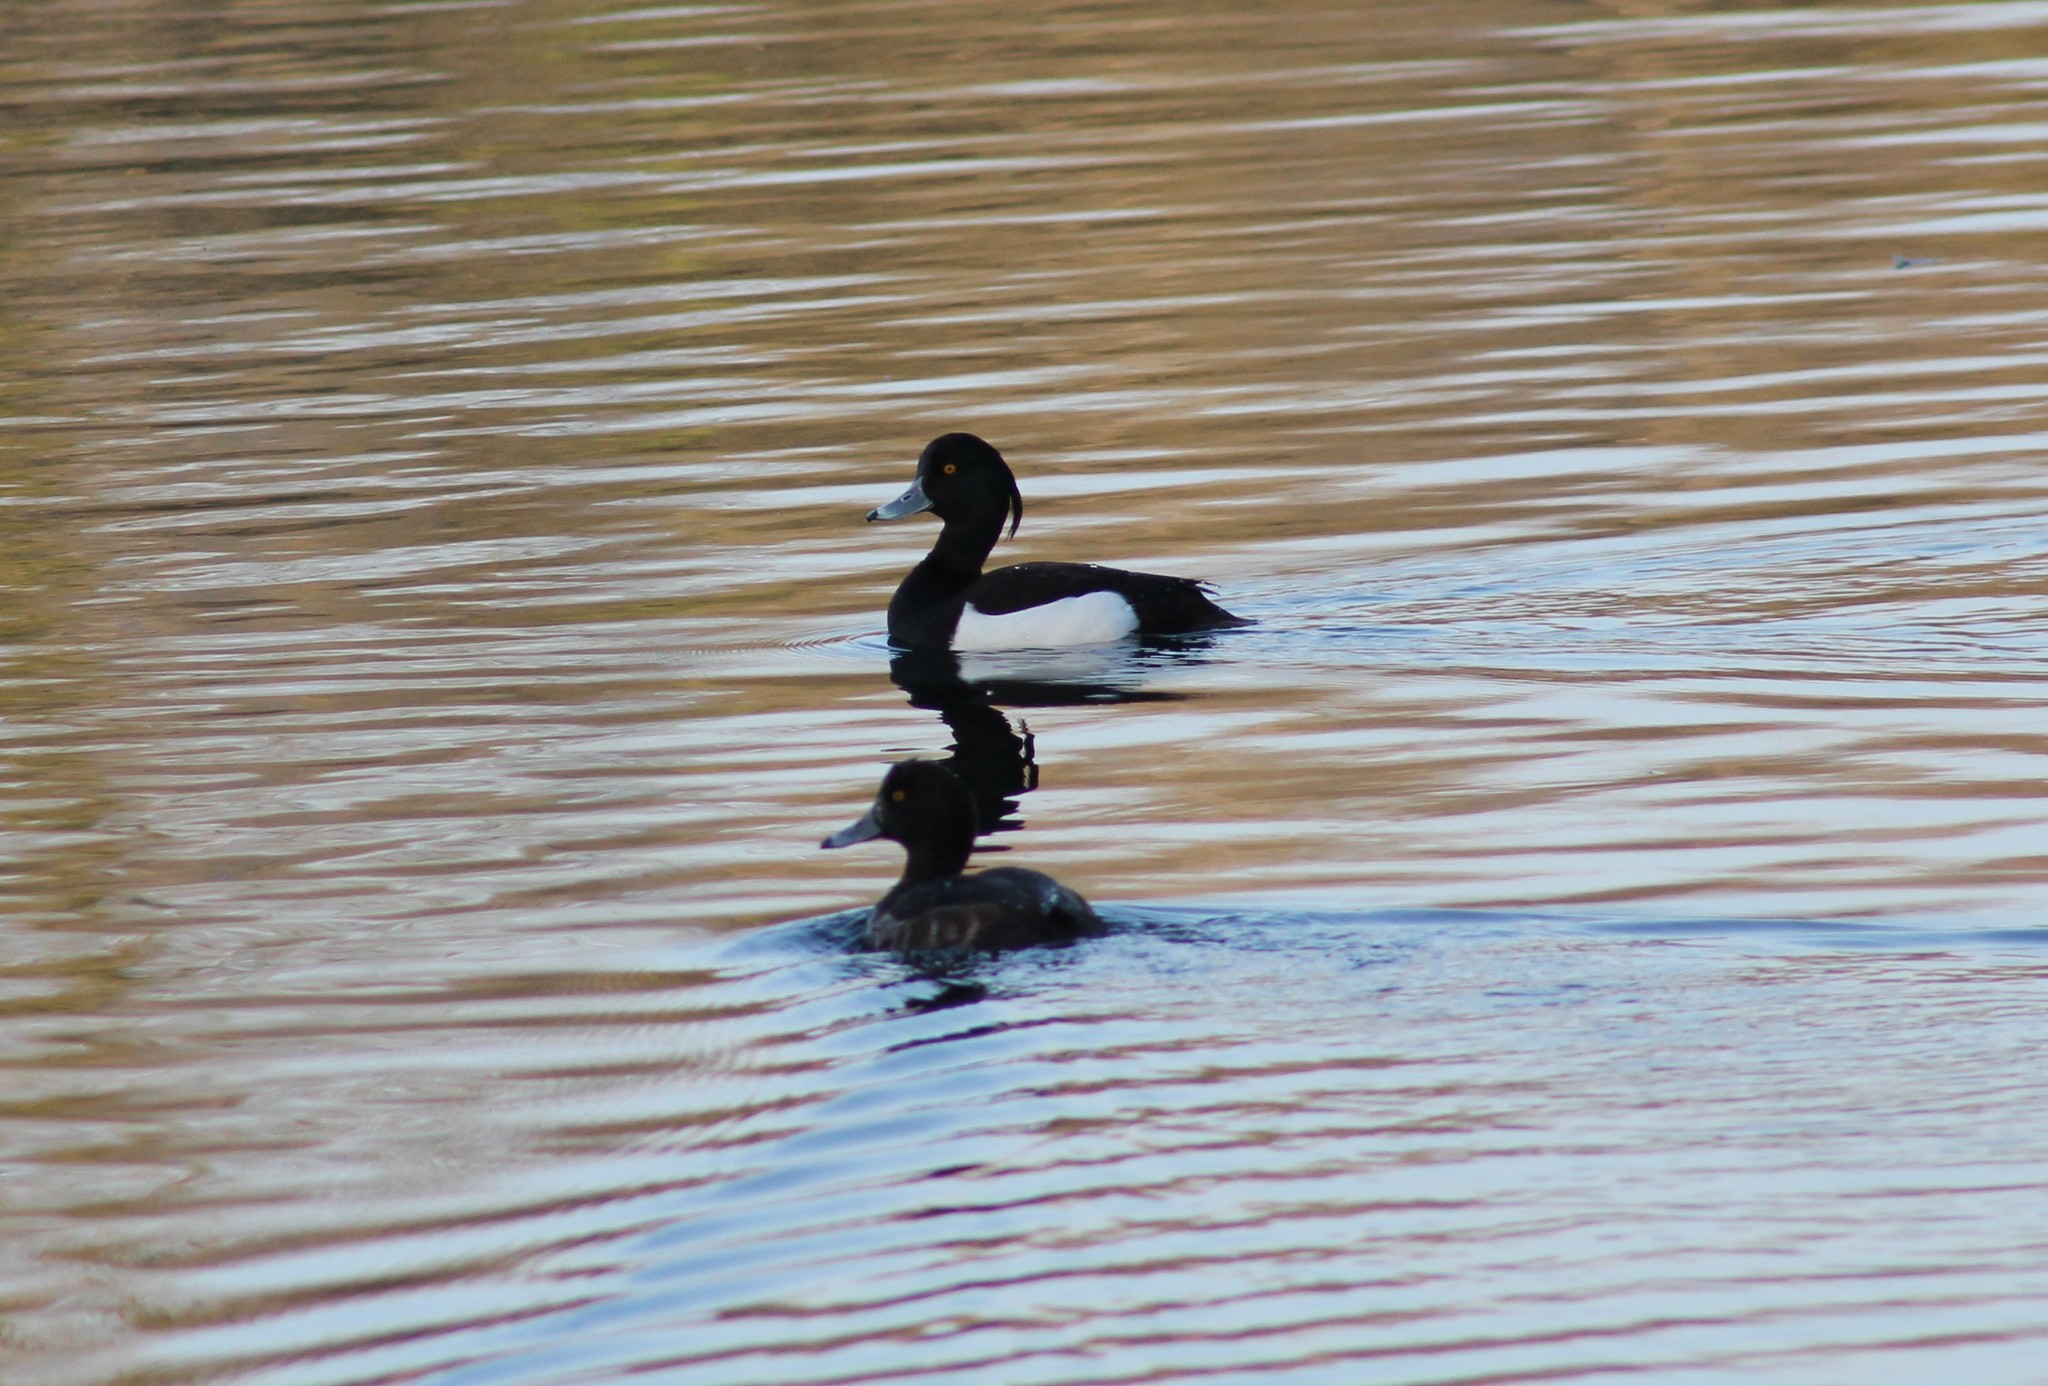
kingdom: Animalia
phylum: Chordata
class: Aves
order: Anseriformes
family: Anatidae
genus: Aythya
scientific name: Aythya fuligula
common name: Tufted duck
